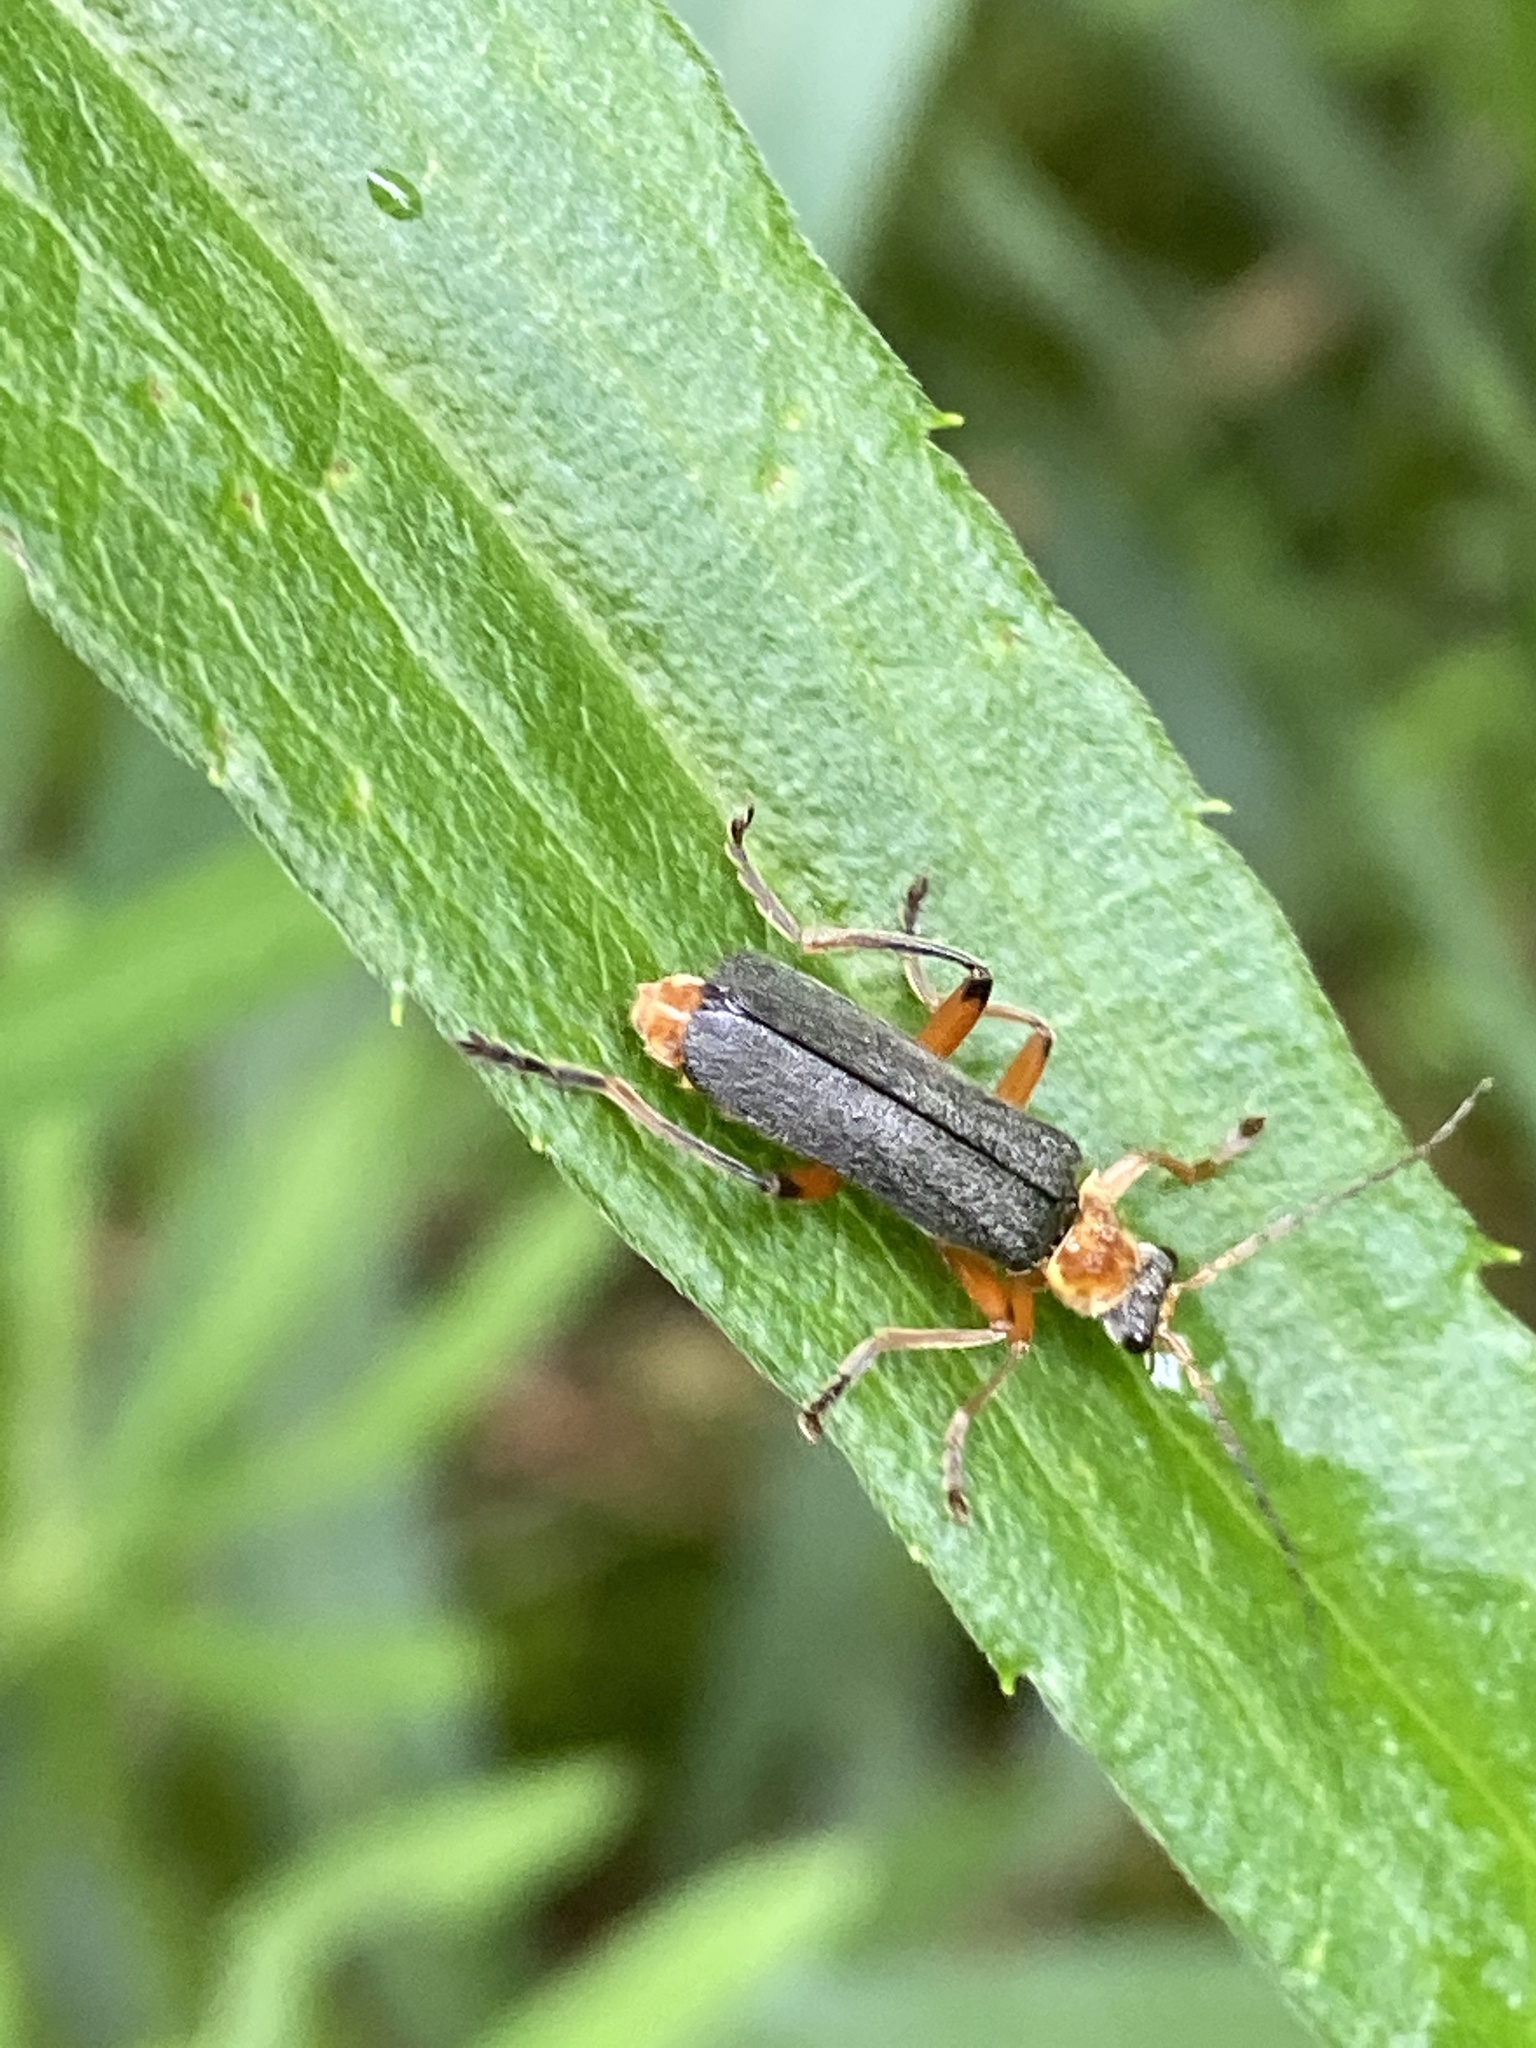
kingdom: Animalia
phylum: Arthropoda
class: Insecta
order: Coleoptera
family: Cantharidae
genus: Cantharis
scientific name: Cantharis nigricans
